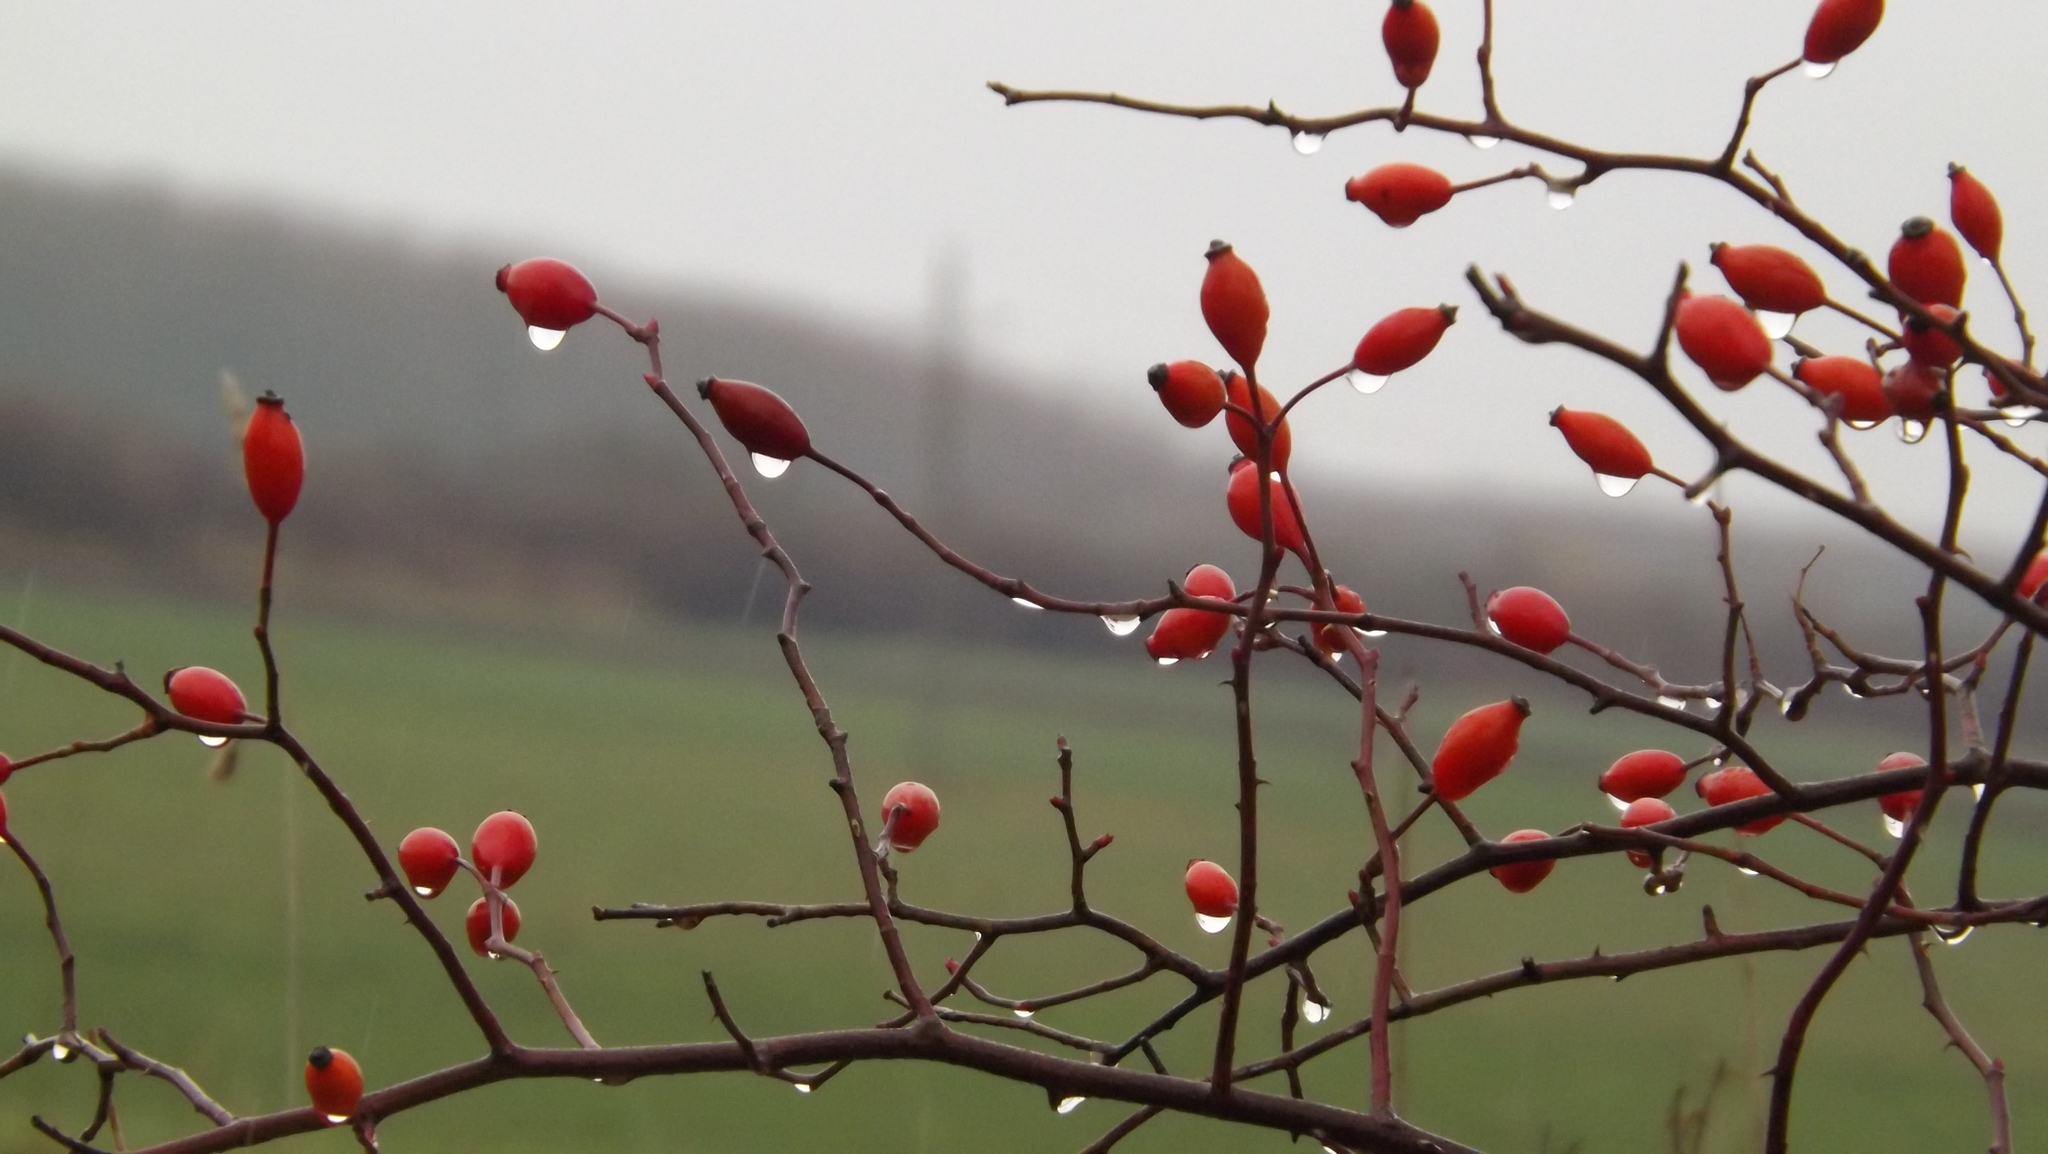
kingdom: Plantae
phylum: Tracheophyta
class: Magnoliopsida
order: Rosales
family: Rosaceae
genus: Rosa
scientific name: Rosa canina
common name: Dog rose
